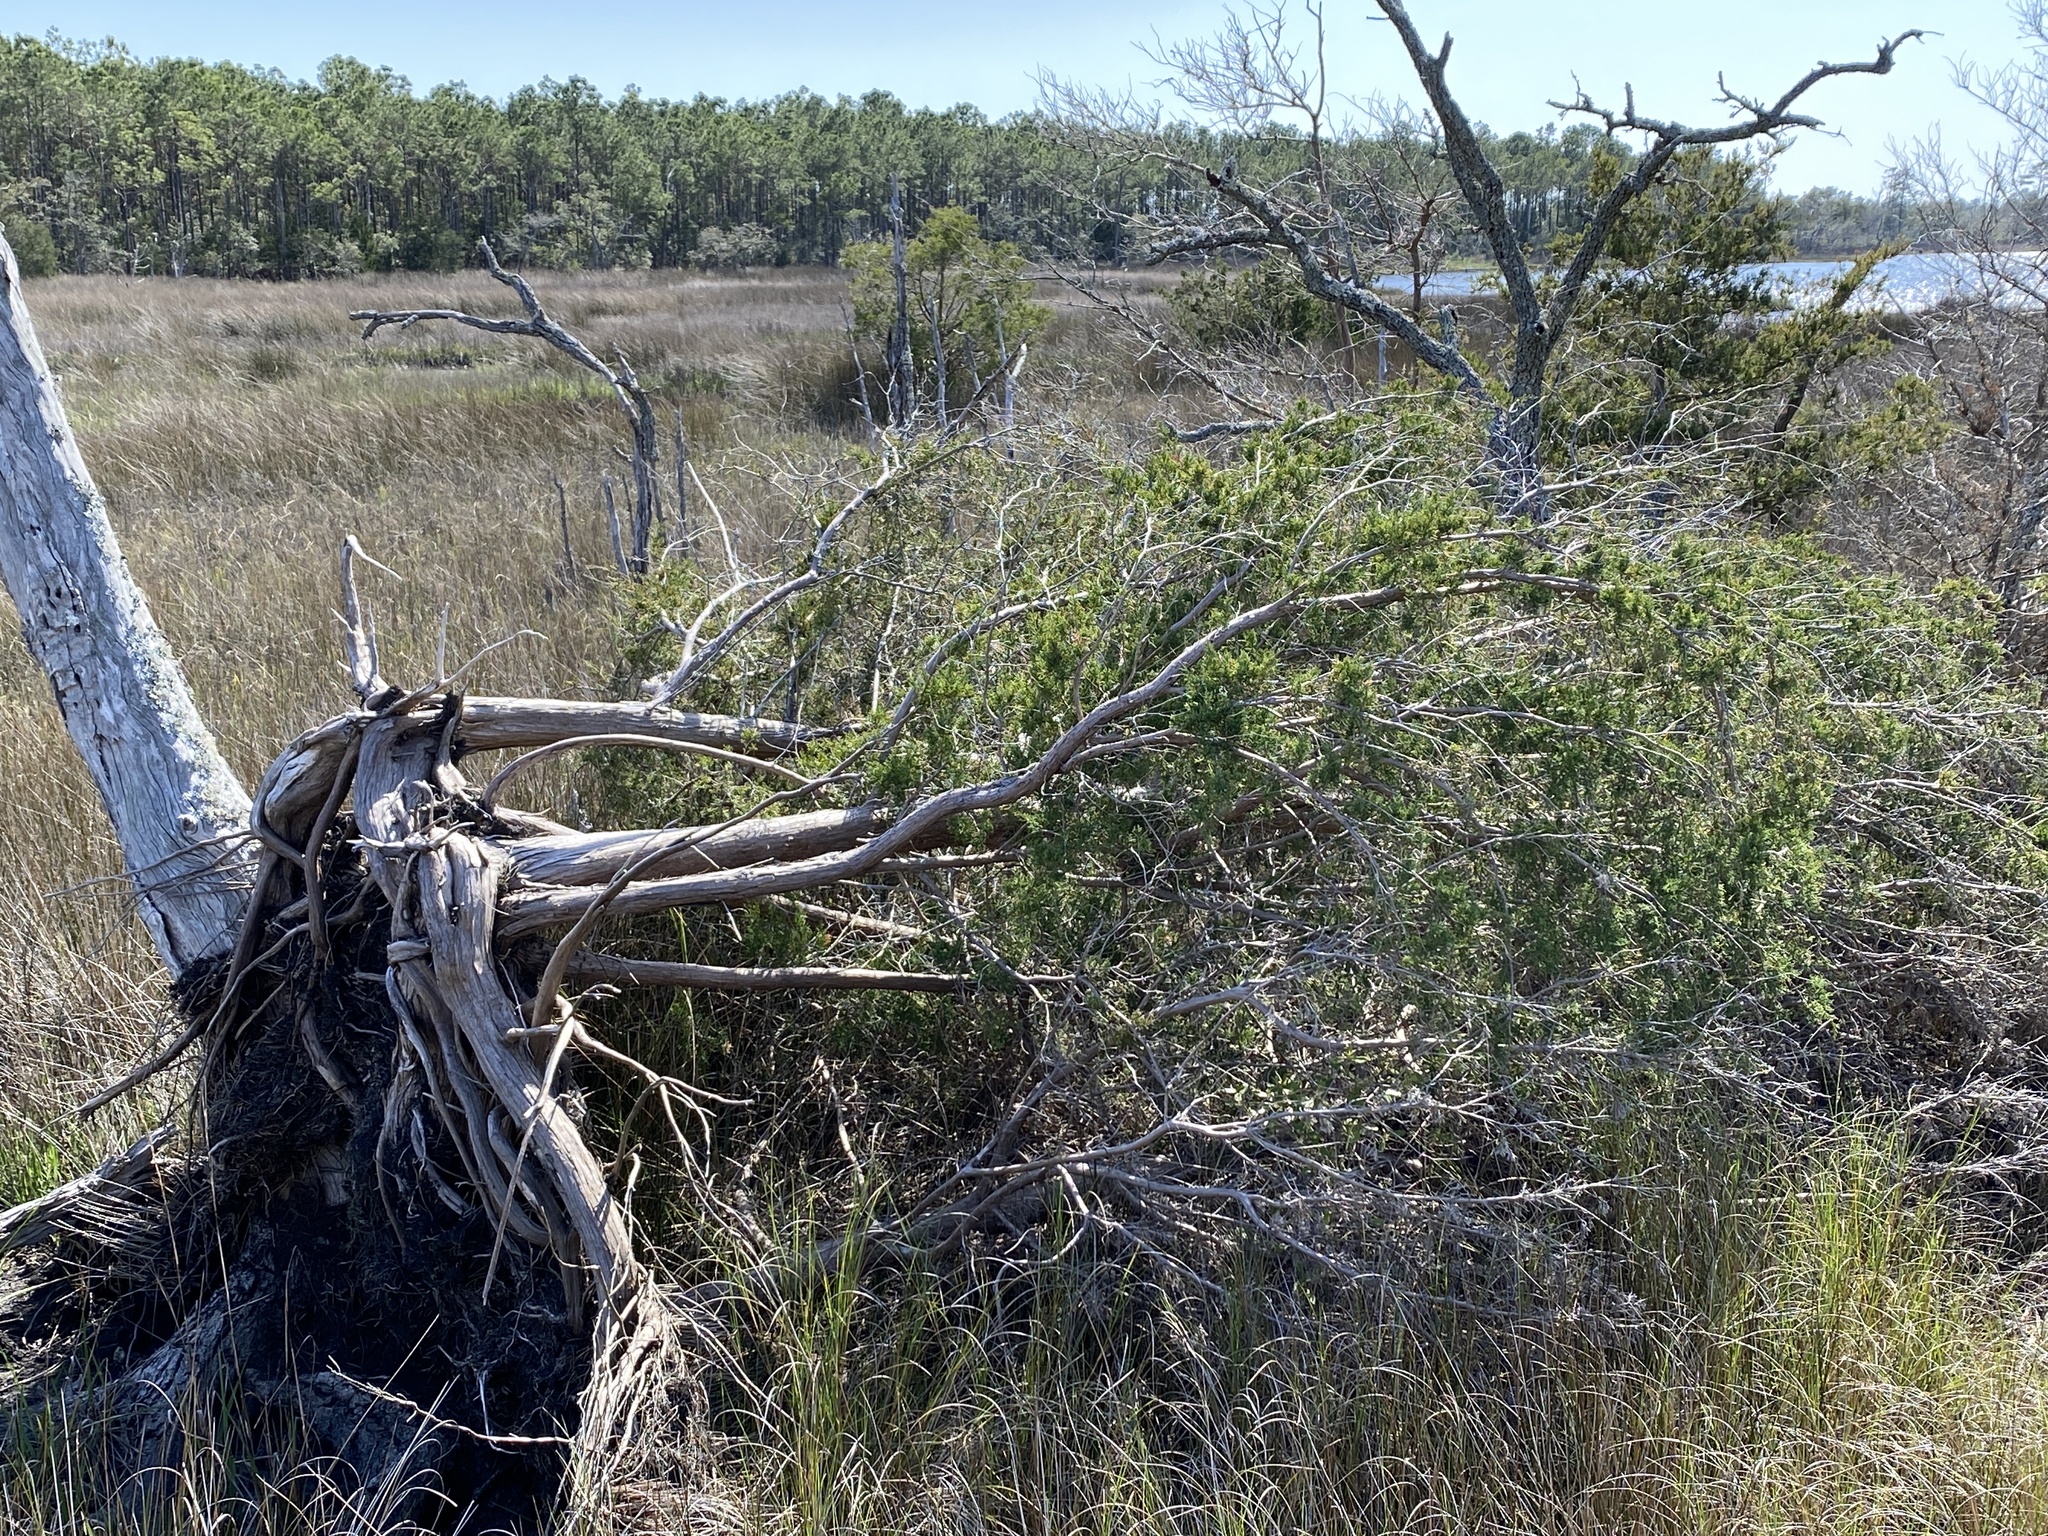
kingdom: Plantae
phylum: Tracheophyta
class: Pinopsida
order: Pinales
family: Cupressaceae
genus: Juniperus
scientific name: Juniperus virginiana
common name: Red juniper
